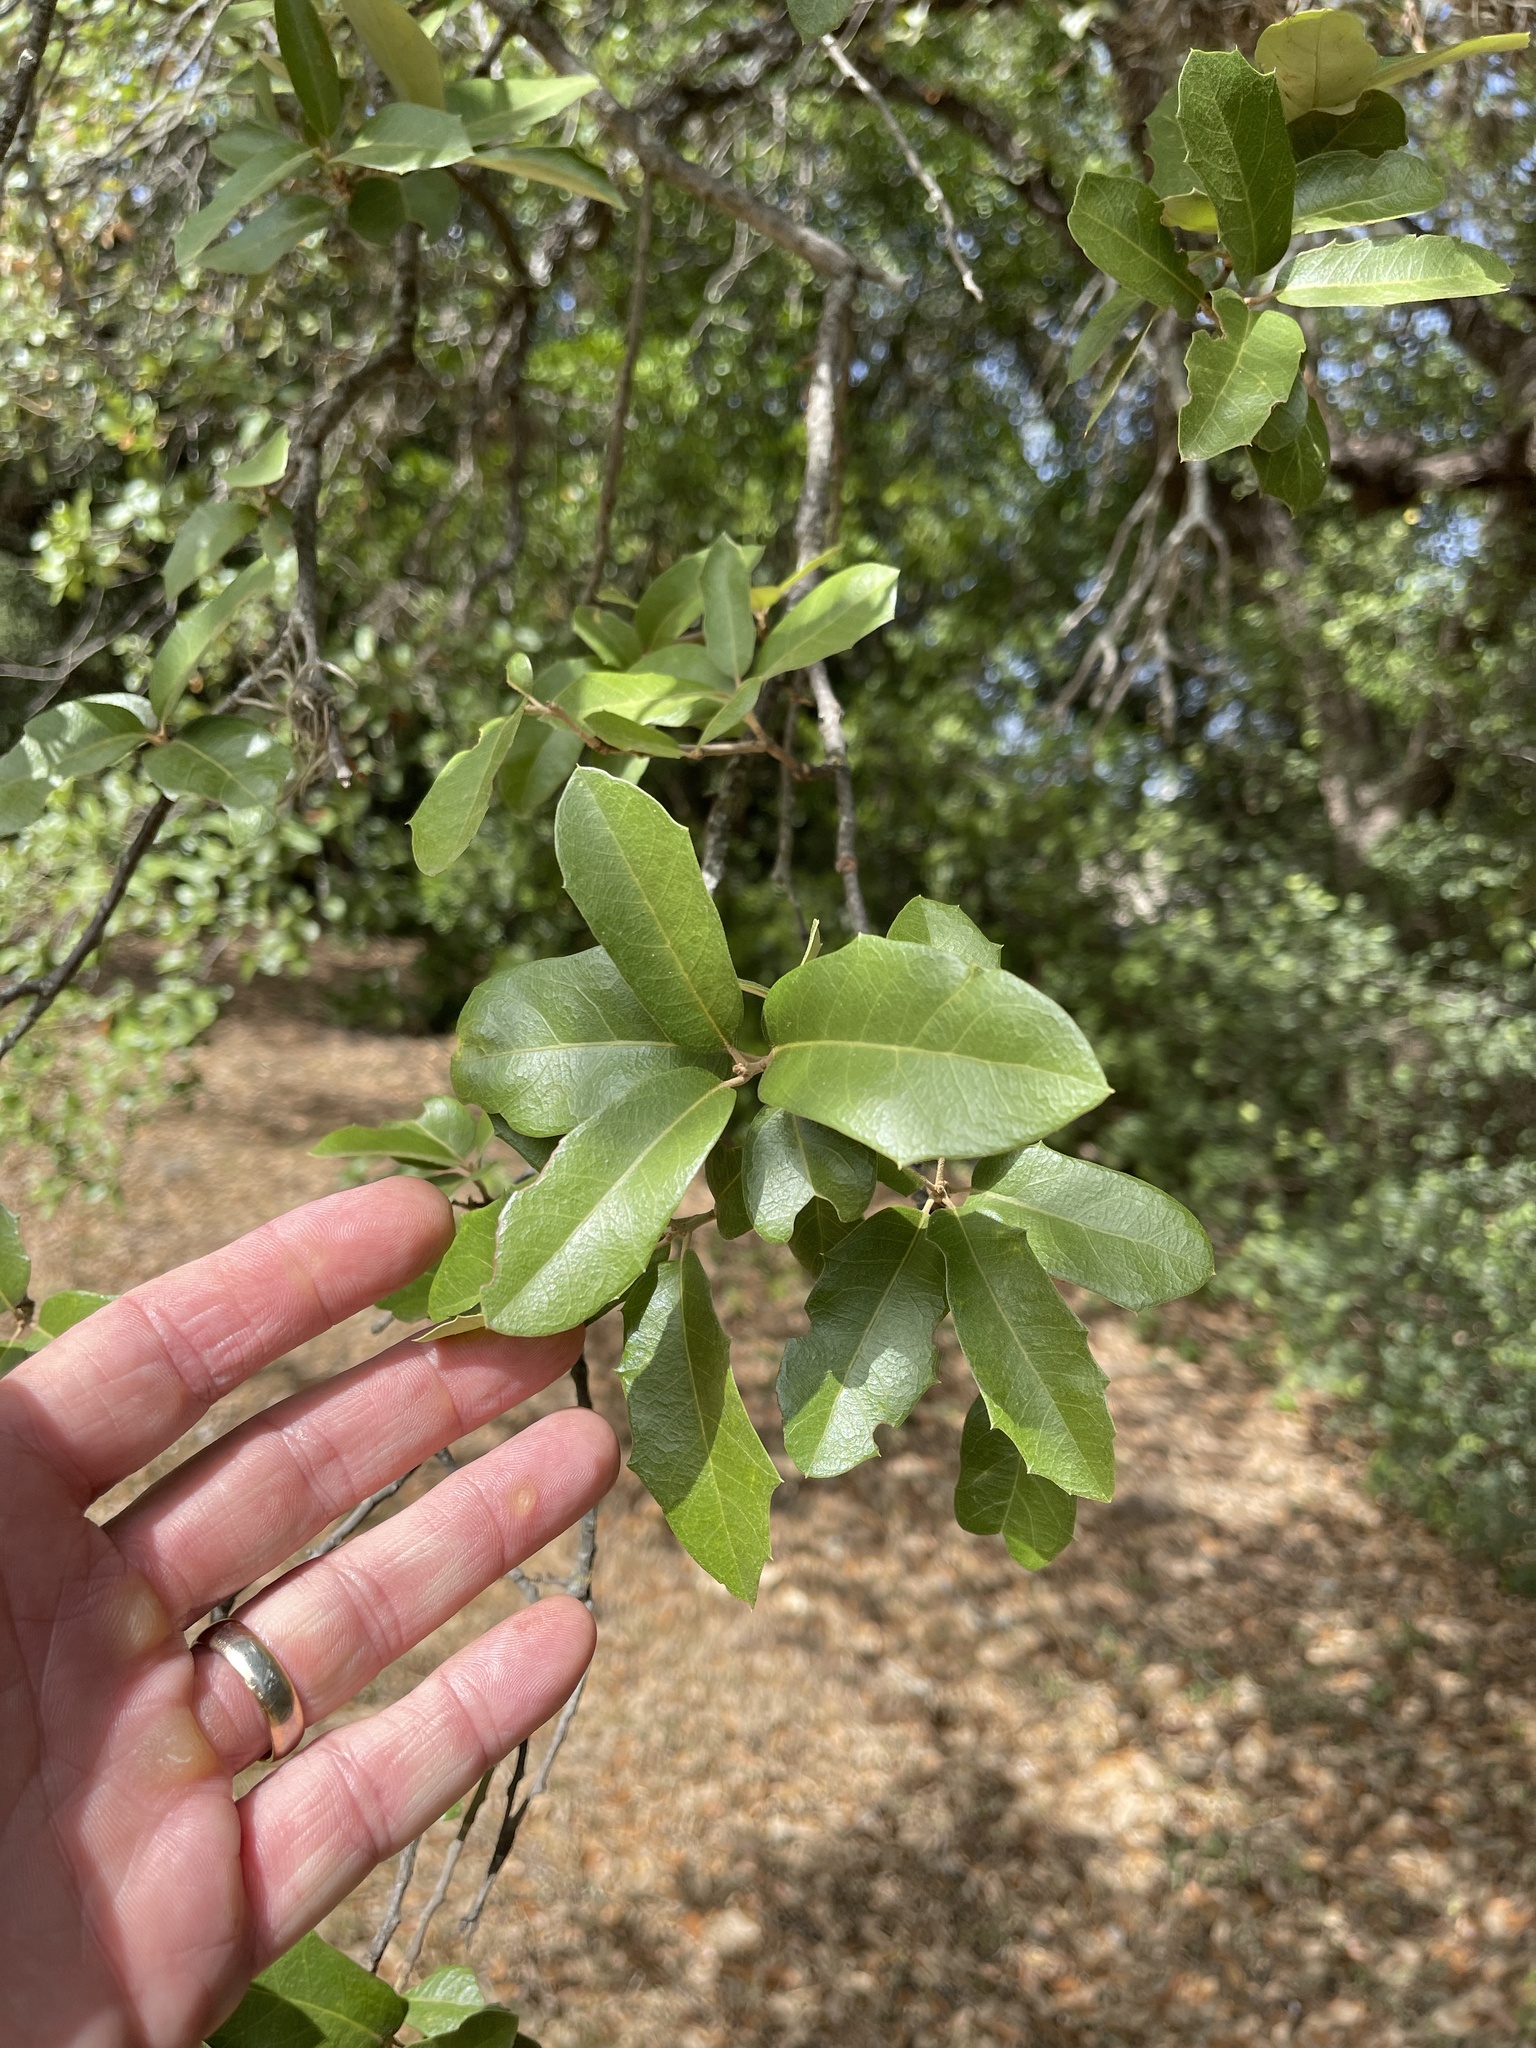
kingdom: Plantae
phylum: Tracheophyta
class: Magnoliopsida
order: Fagales
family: Fagaceae
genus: Quercus
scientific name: Quercus fusiformis
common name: Texas live oak
